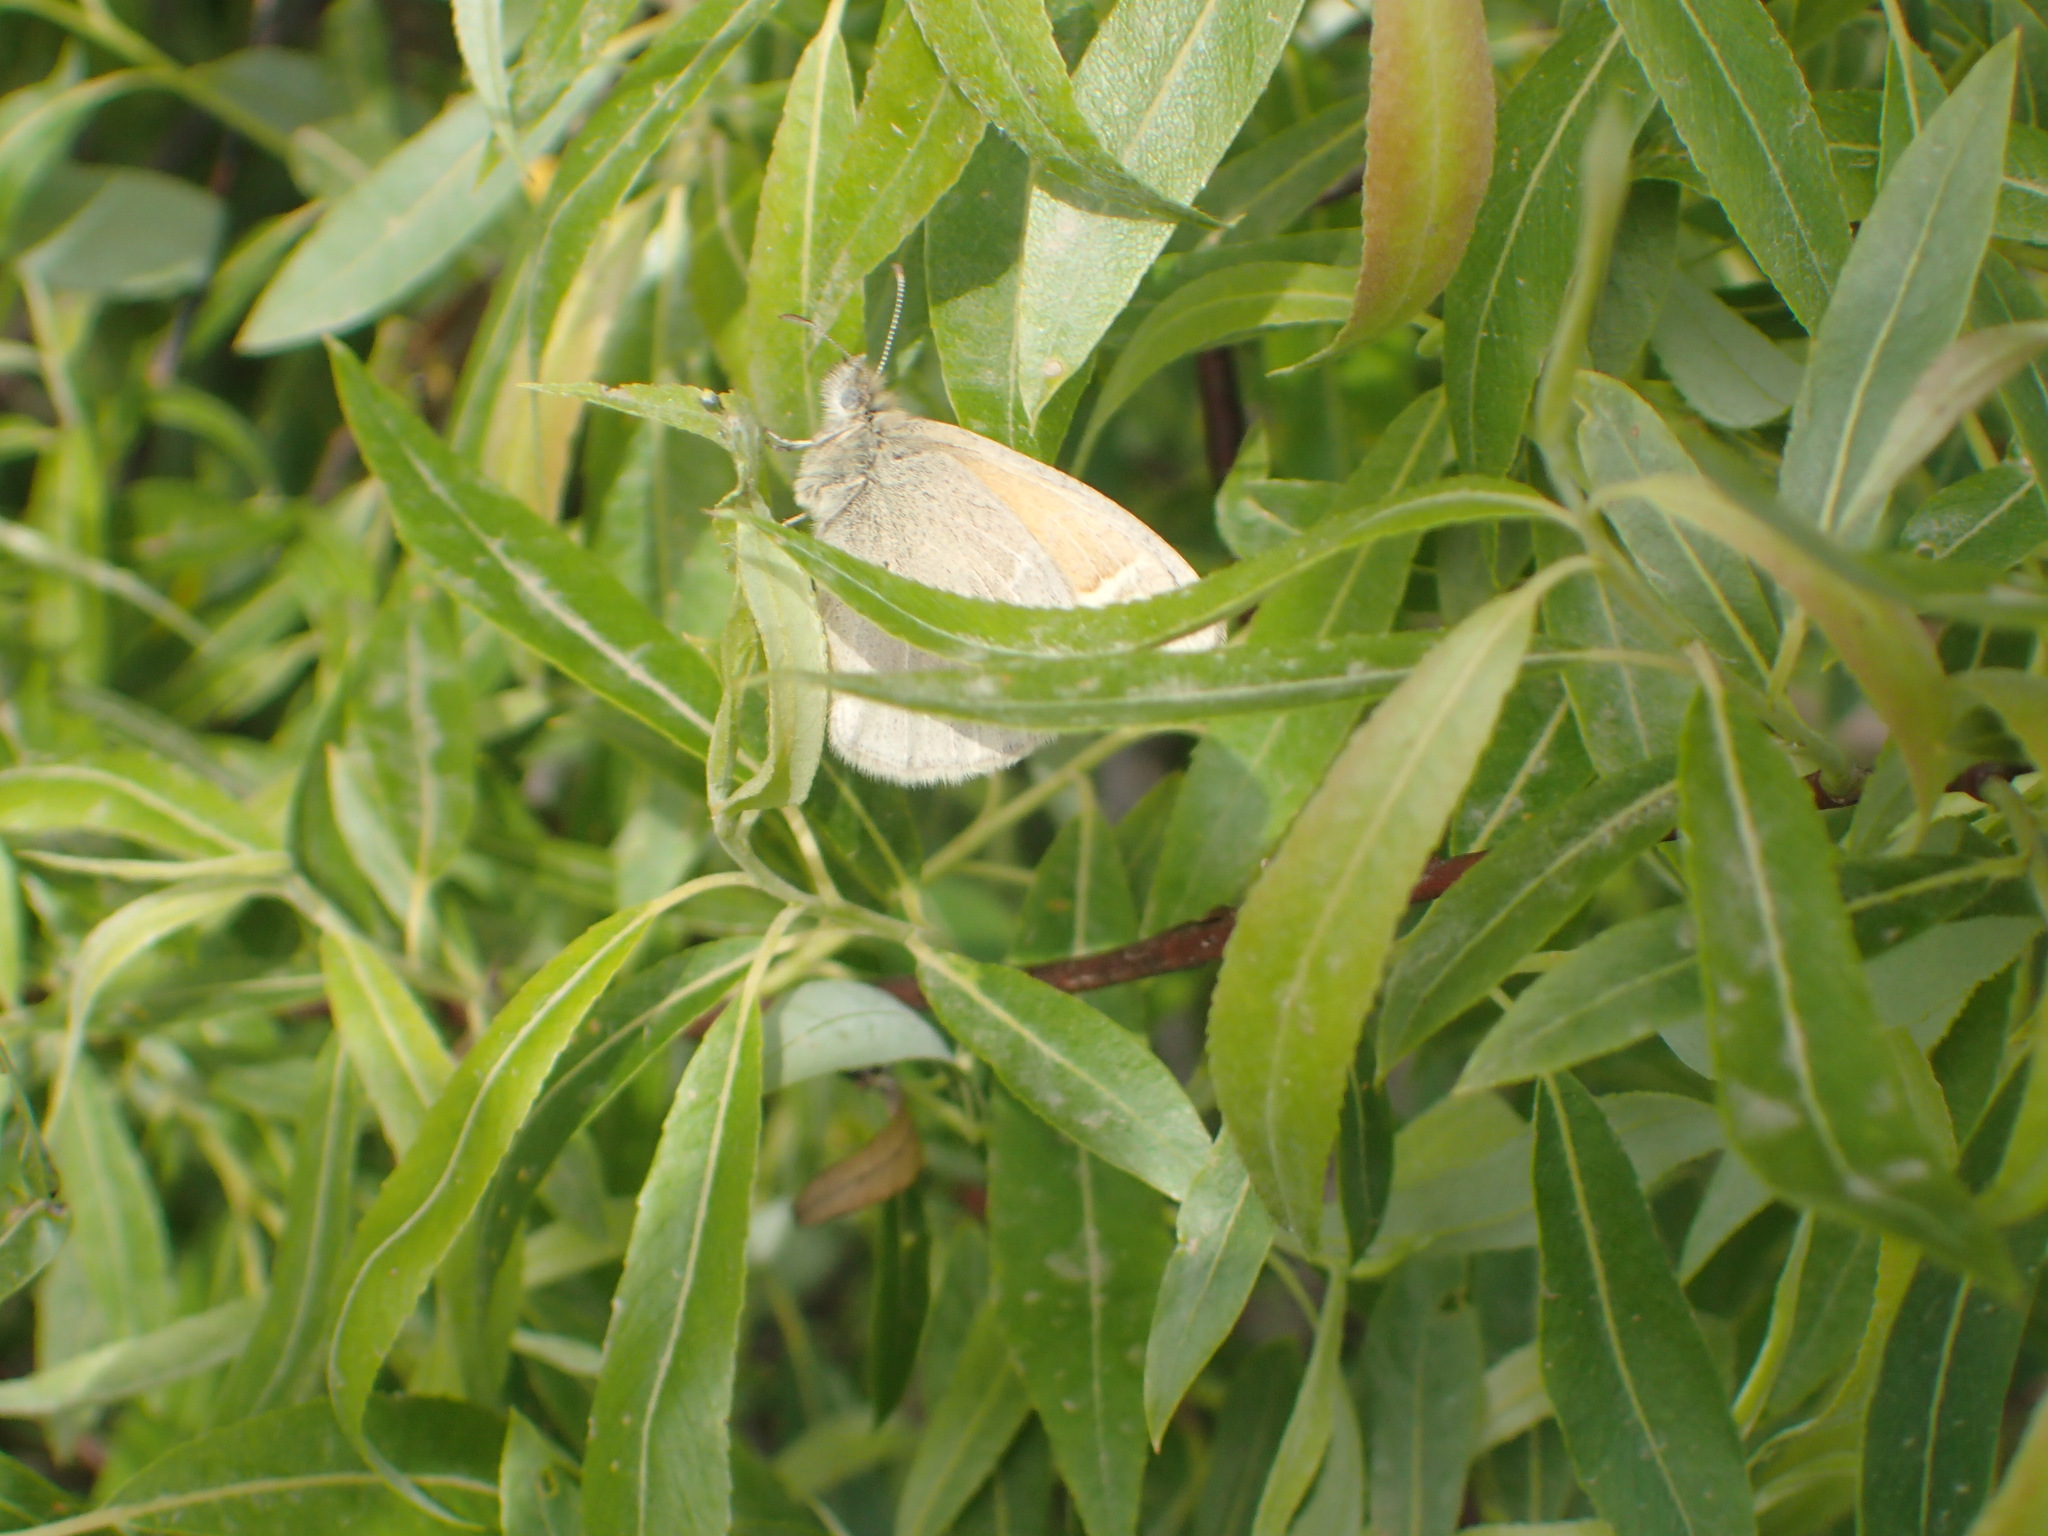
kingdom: Animalia
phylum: Arthropoda
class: Insecta
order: Lepidoptera
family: Nymphalidae
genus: Coenonympha
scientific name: Coenonympha california
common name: Common ringlet
